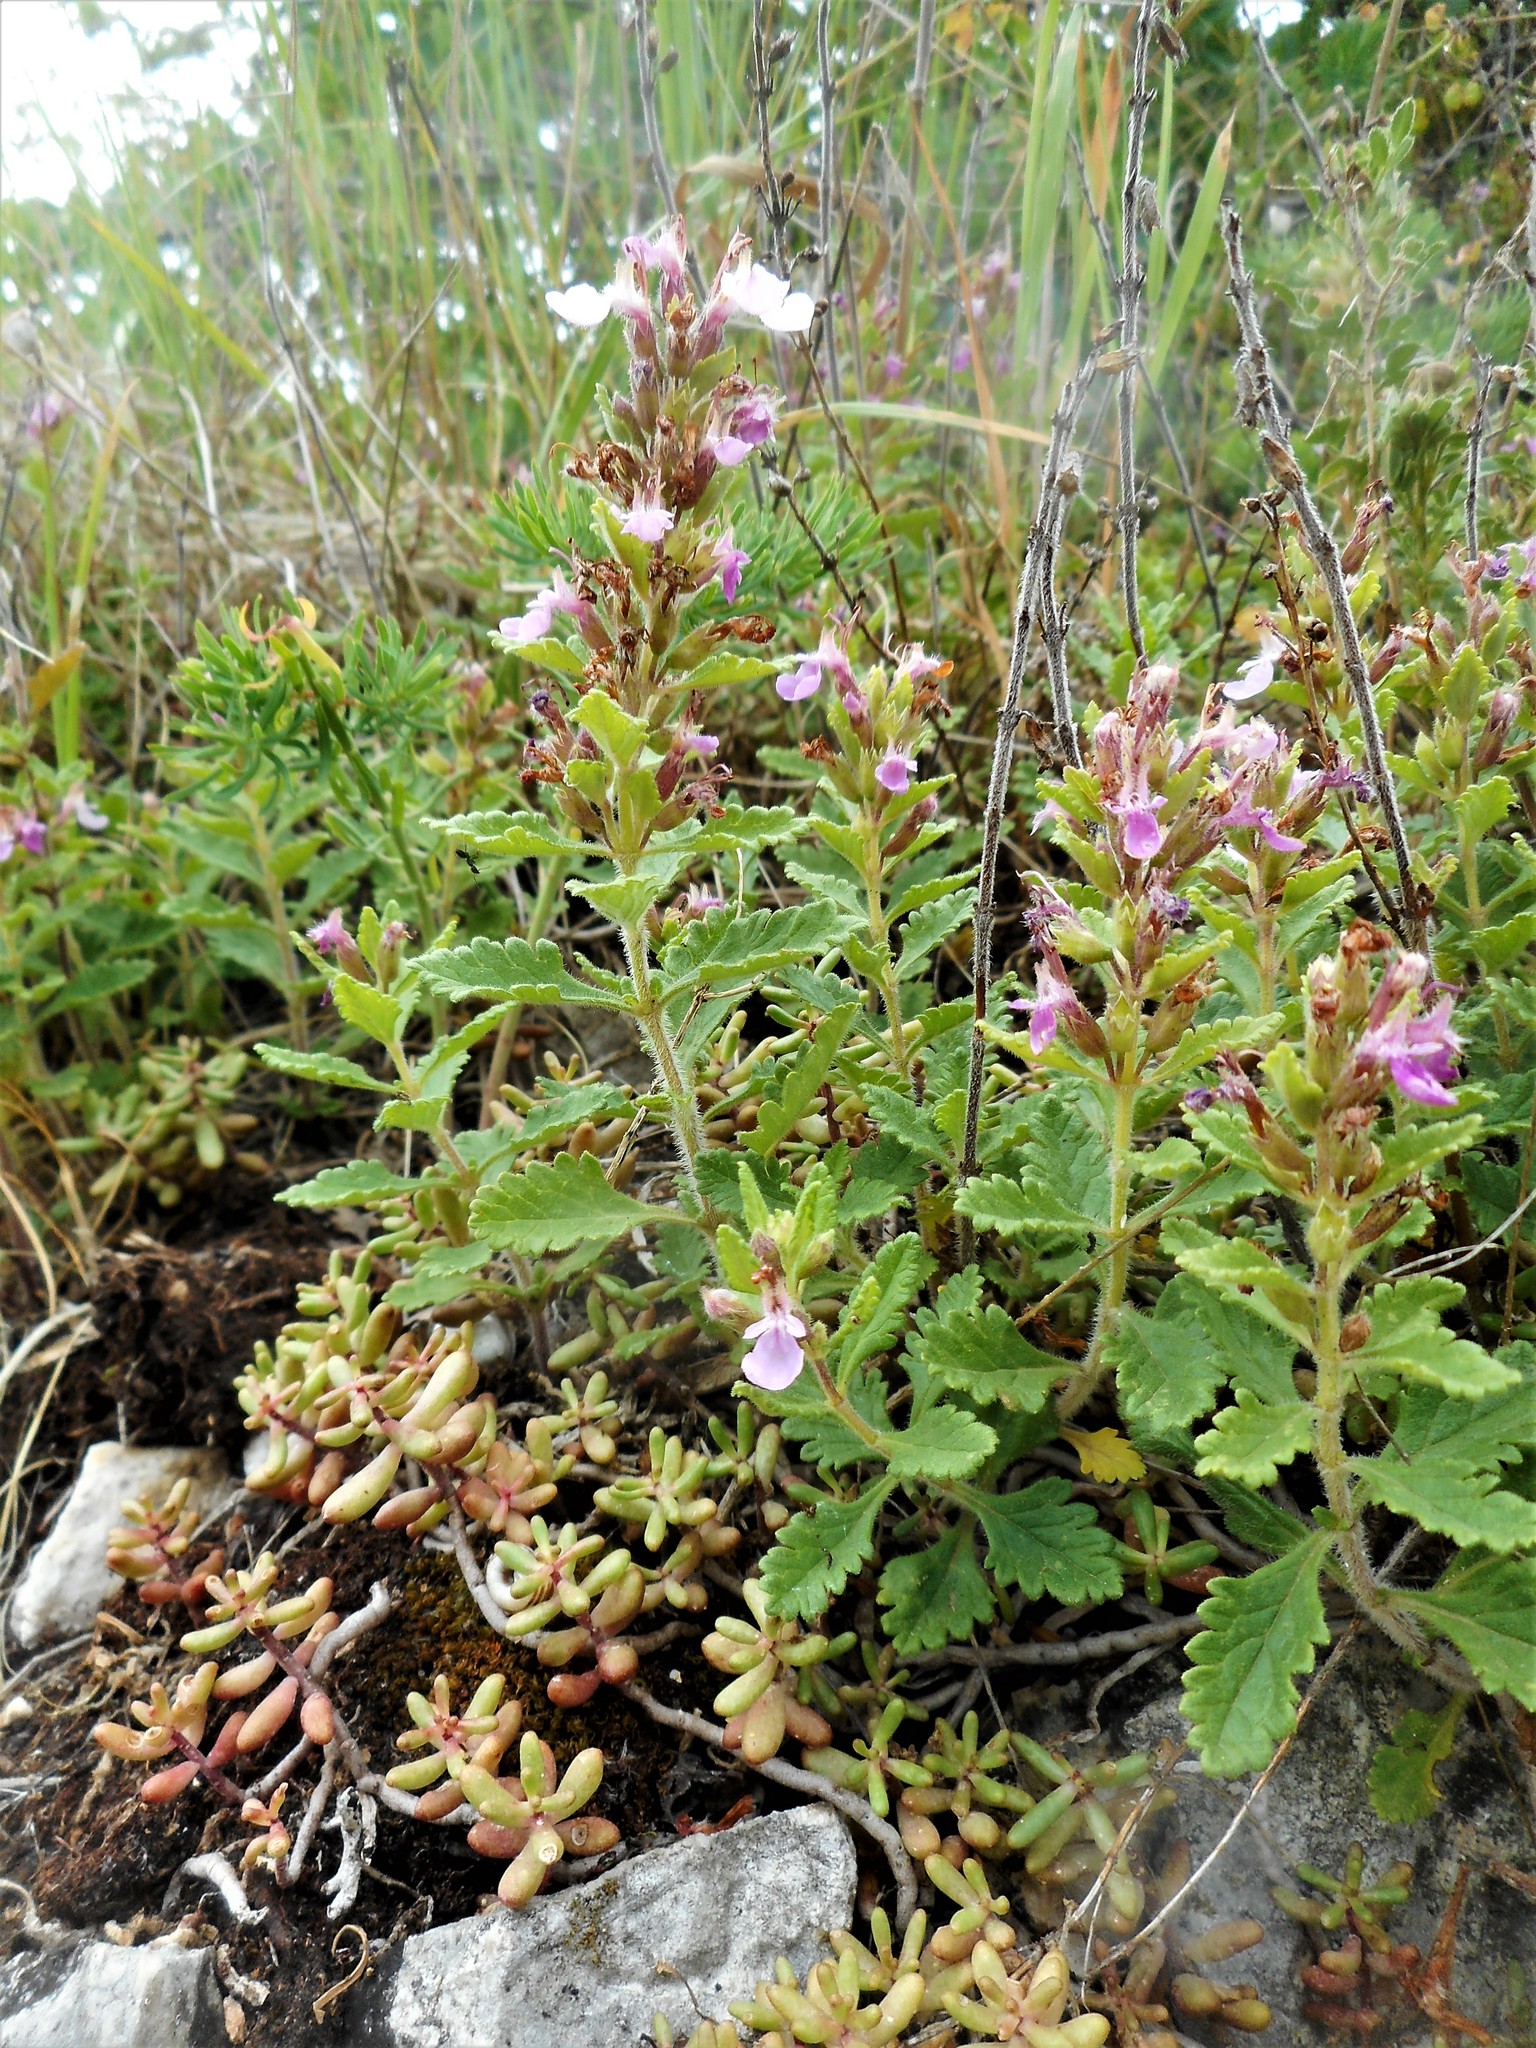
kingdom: Plantae
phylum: Tracheophyta
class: Magnoliopsida
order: Lamiales
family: Lamiaceae
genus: Teucrium
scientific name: Teucrium chamaedrys
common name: Wall germander
